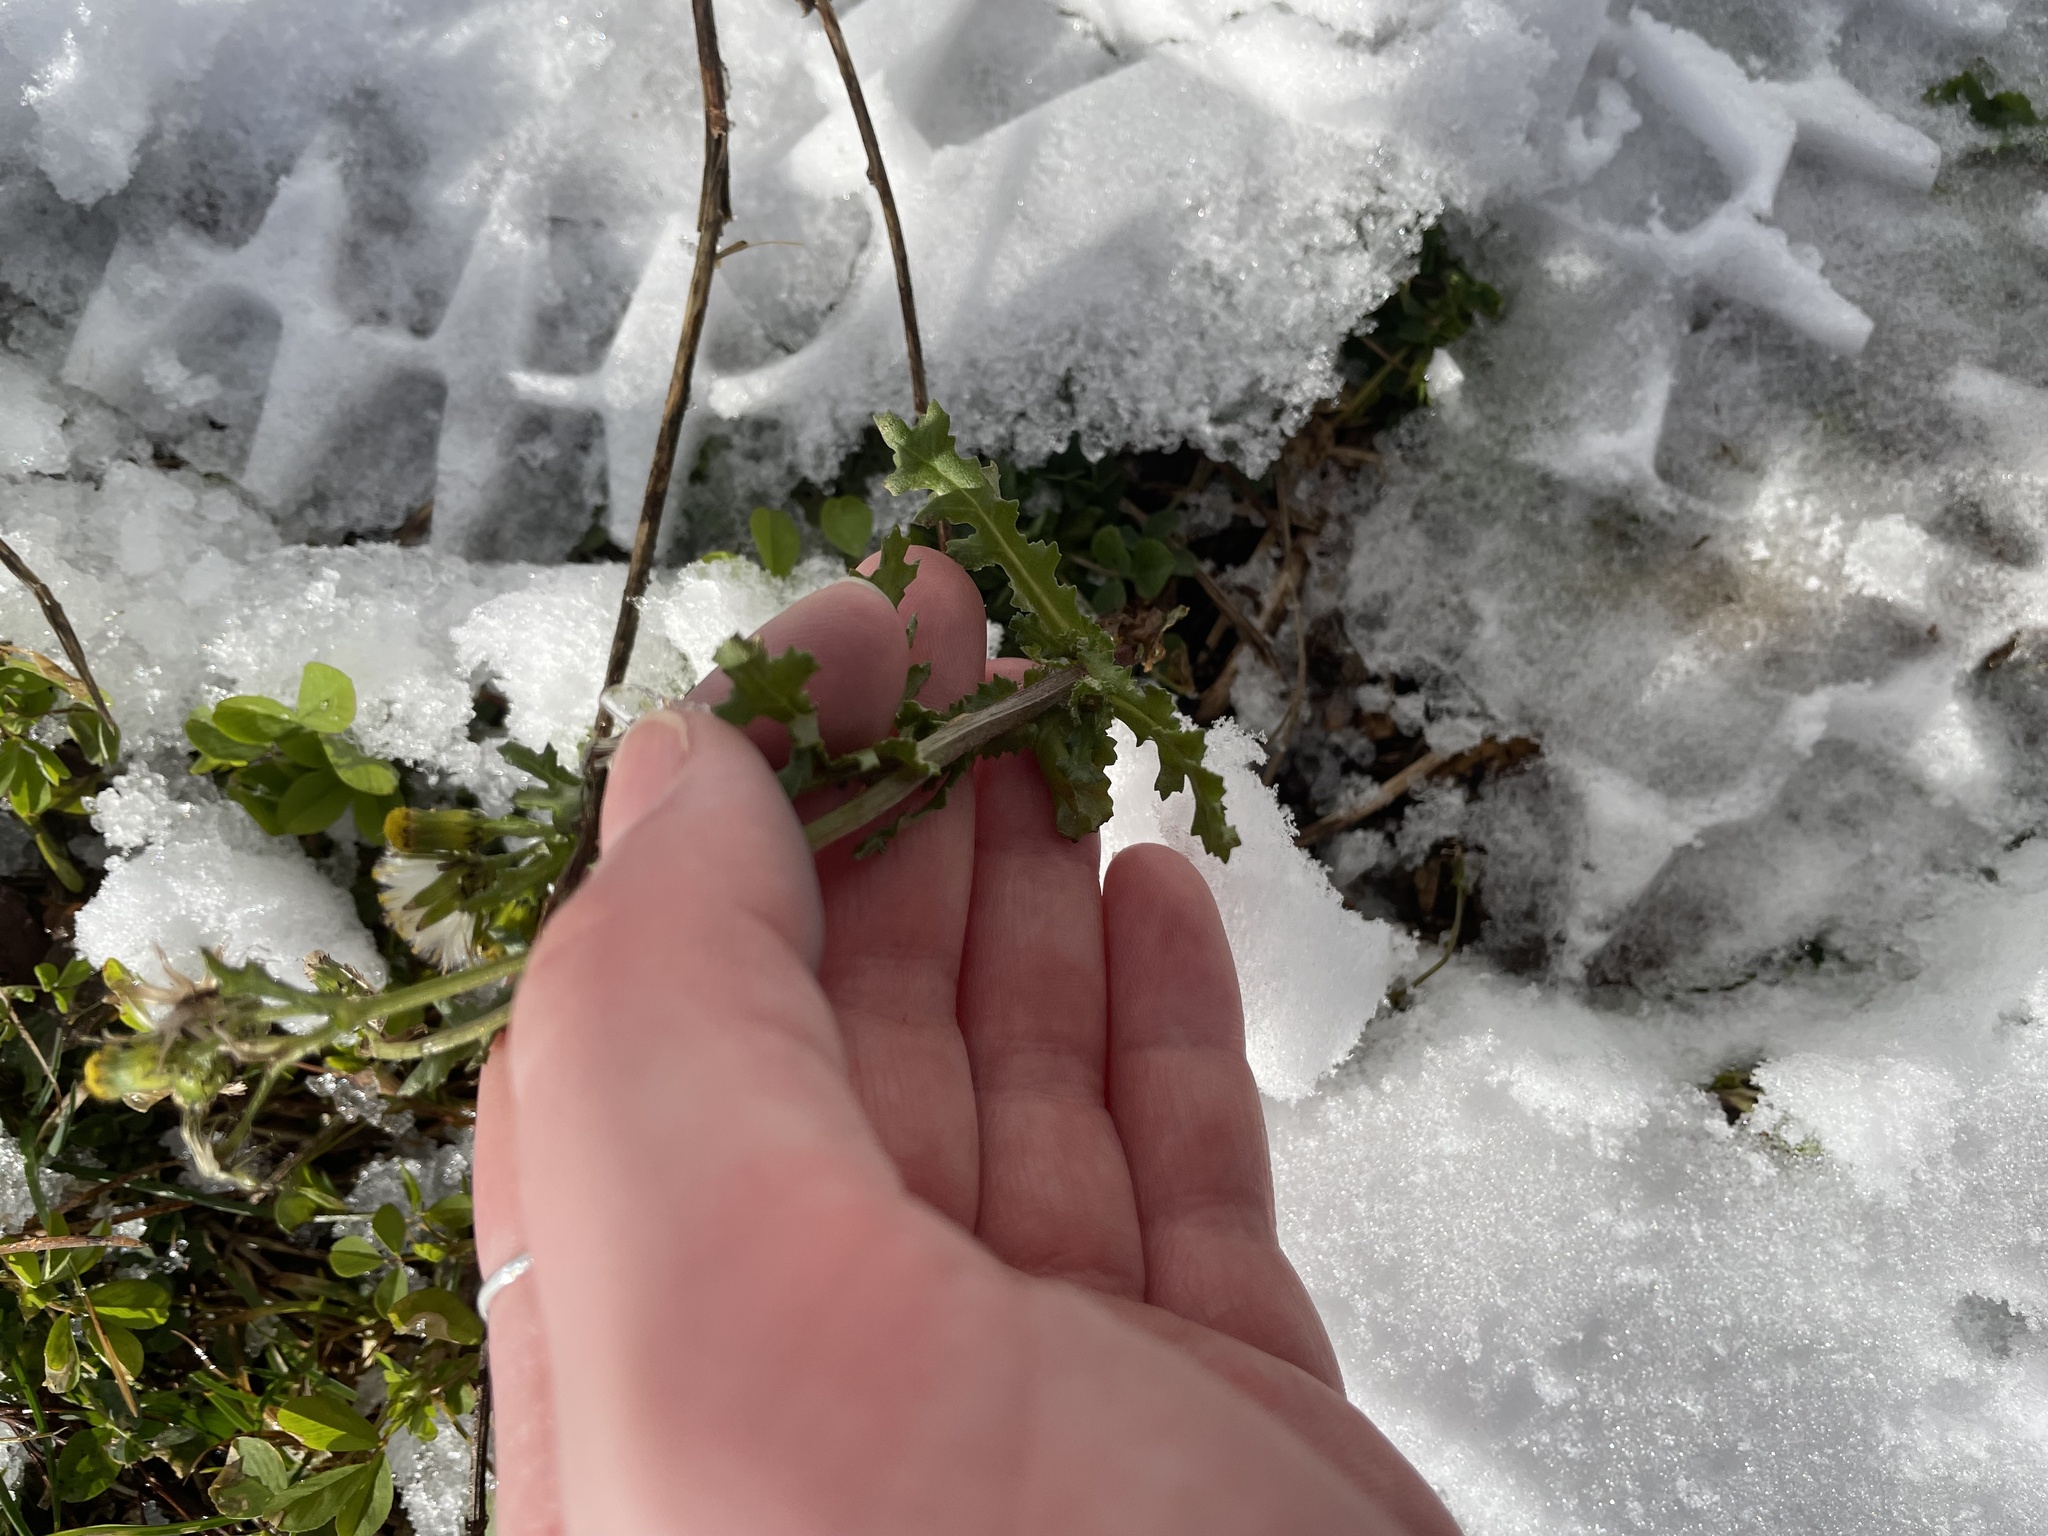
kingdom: Plantae
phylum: Tracheophyta
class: Magnoliopsida
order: Asterales
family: Asteraceae
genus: Senecio
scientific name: Senecio vulgaris
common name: Old-man-in-the-spring
